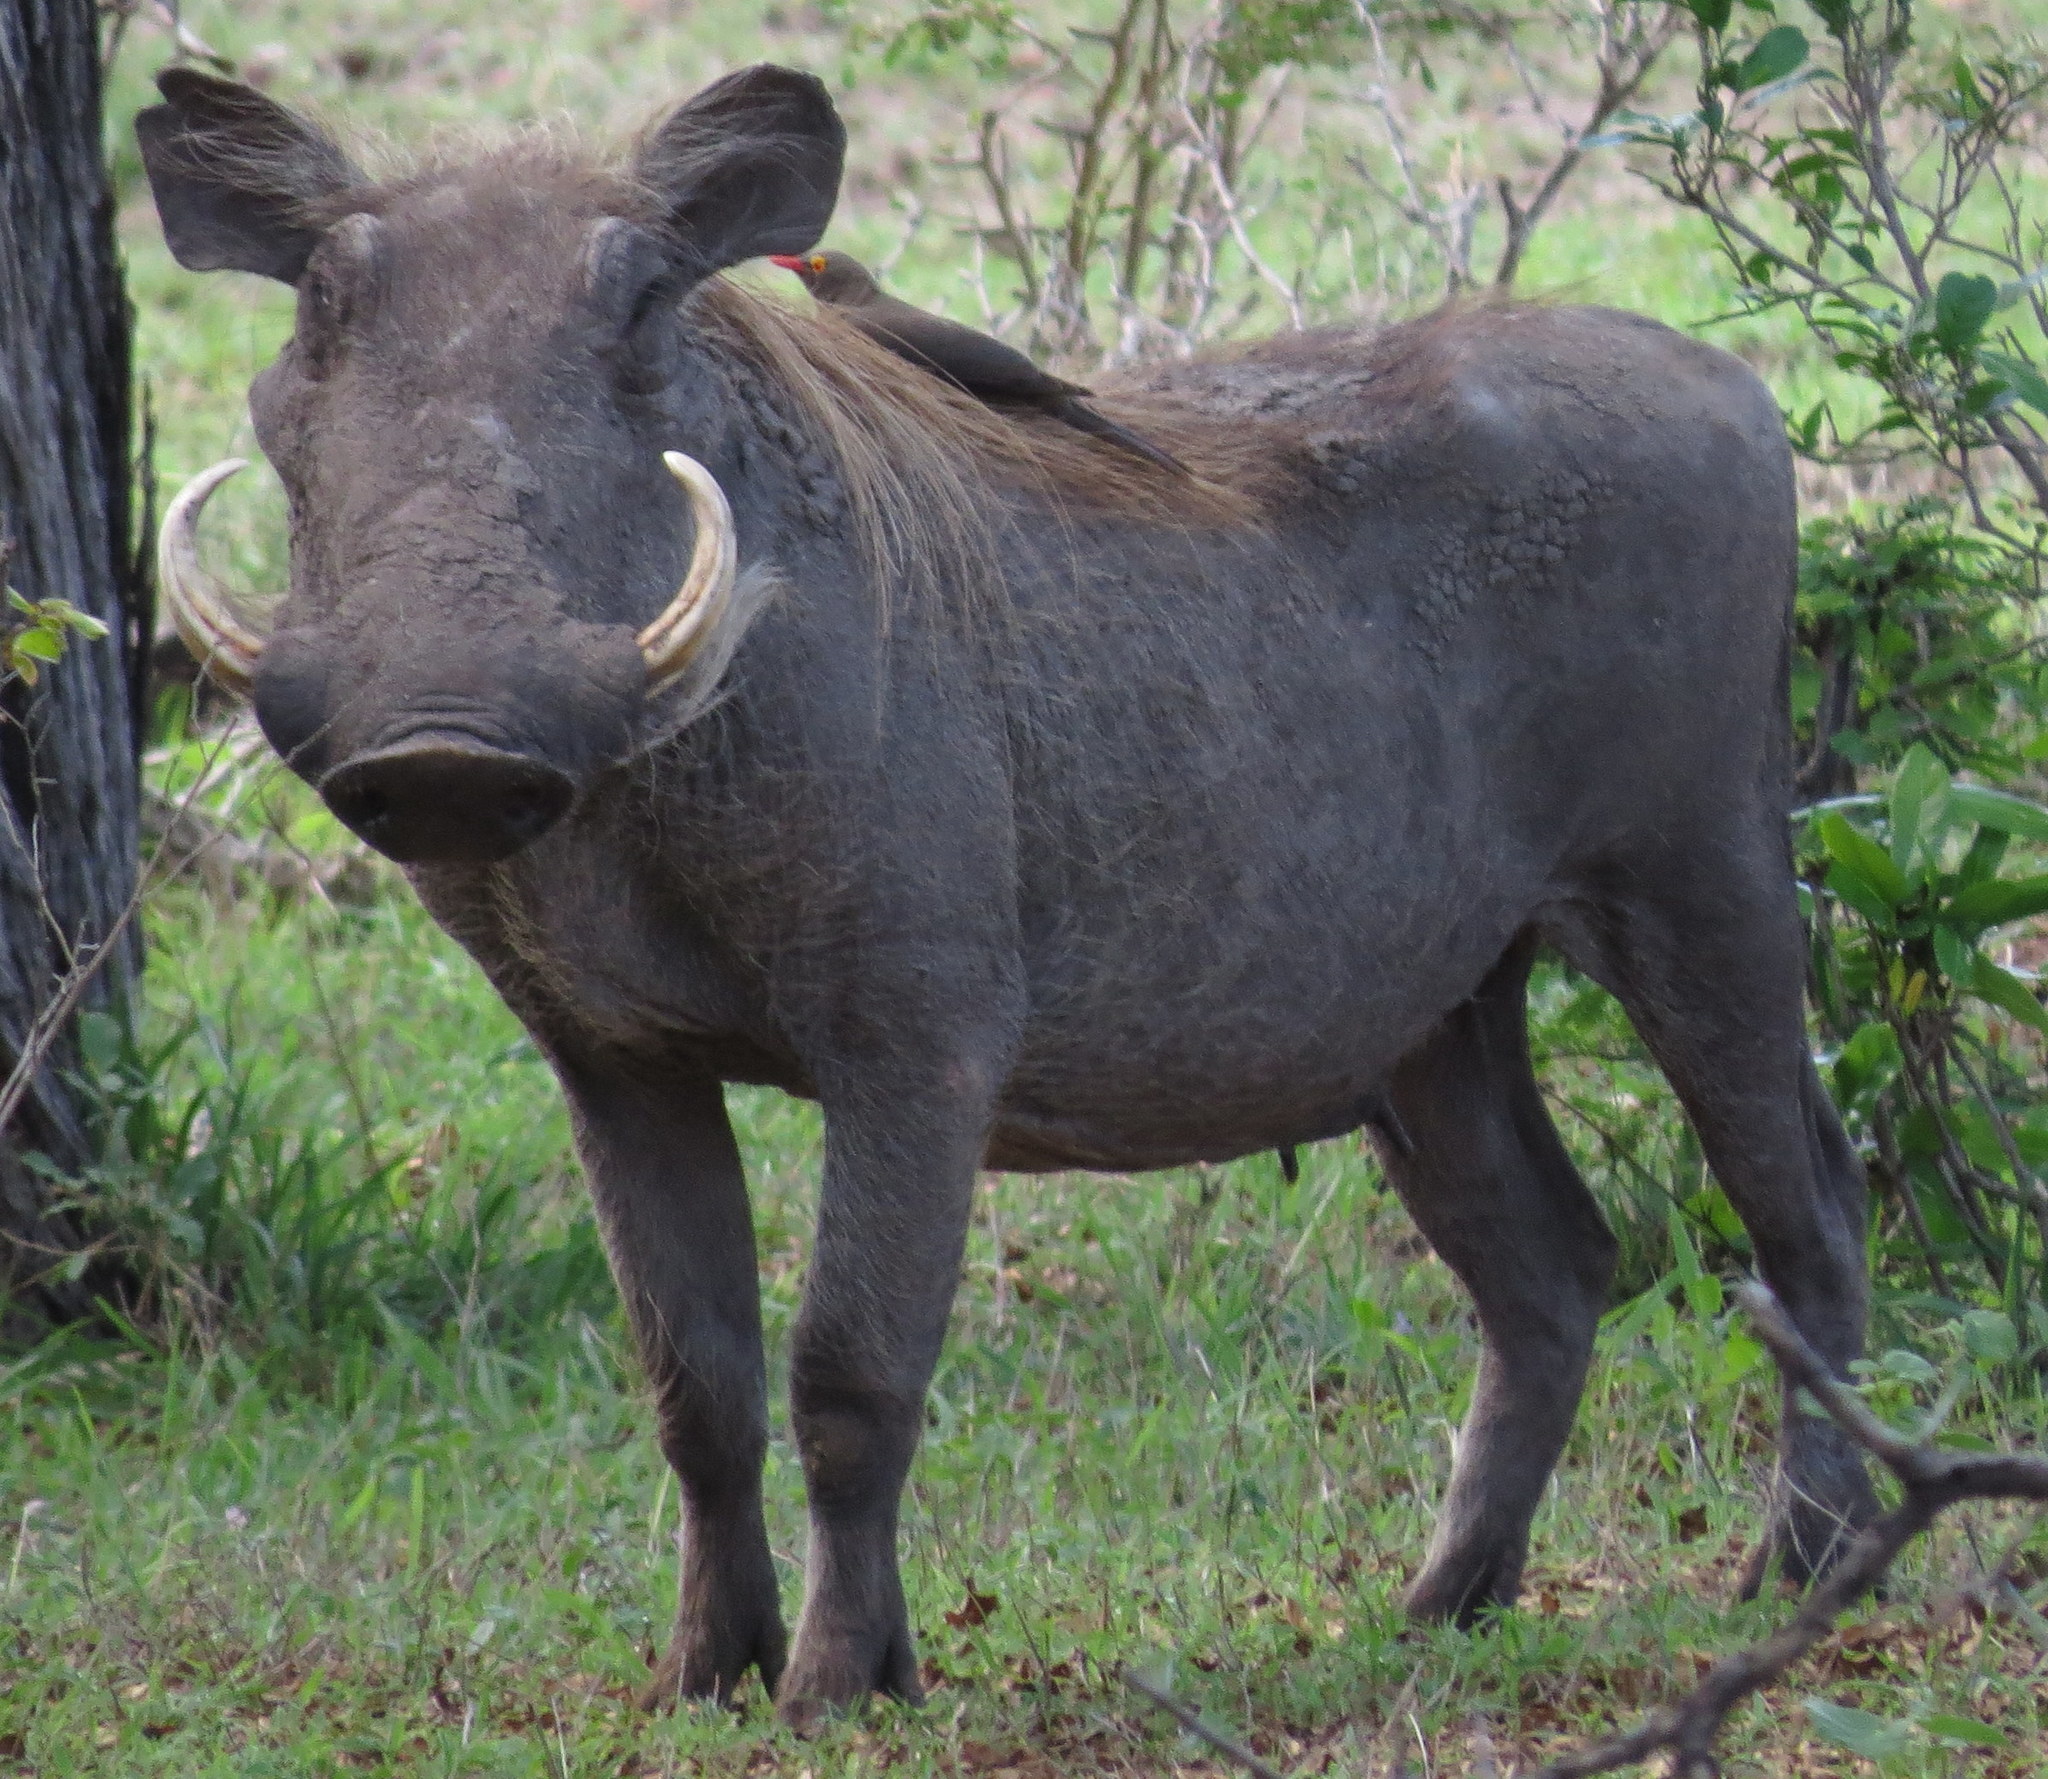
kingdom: Animalia
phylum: Chordata
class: Mammalia
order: Artiodactyla
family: Suidae
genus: Phacochoerus
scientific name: Phacochoerus africanus
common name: Common warthog
